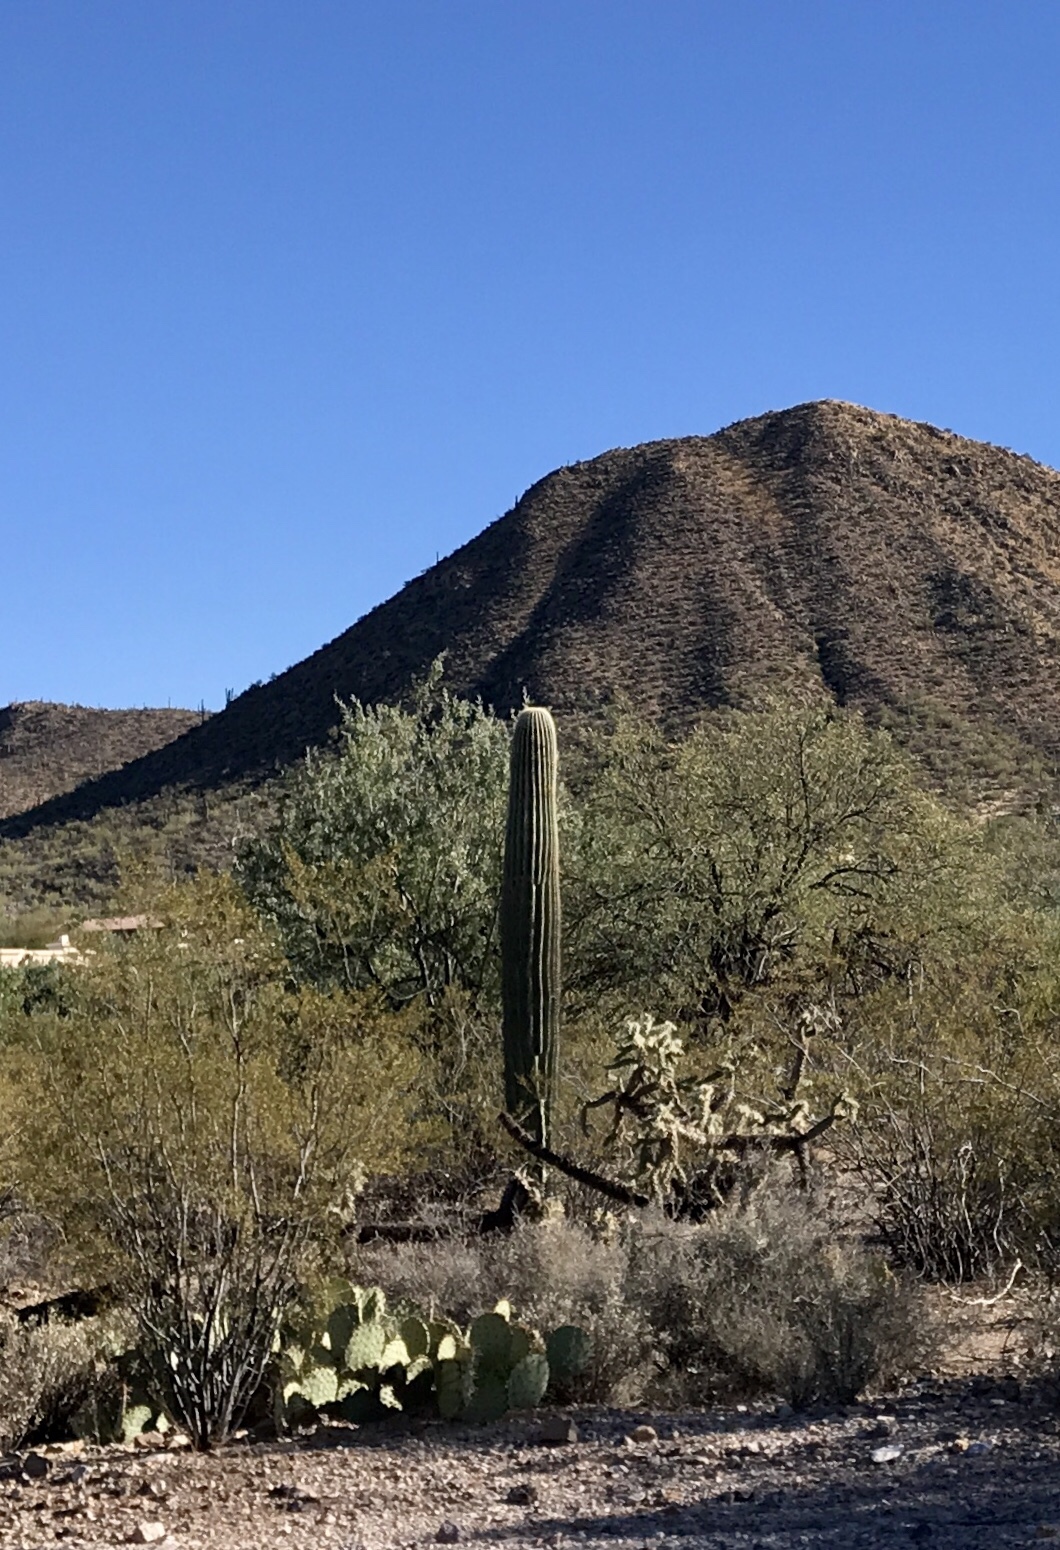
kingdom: Plantae
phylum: Tracheophyta
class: Magnoliopsida
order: Caryophyllales
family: Cactaceae
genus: Carnegiea
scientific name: Carnegiea gigantea
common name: Saguaro
